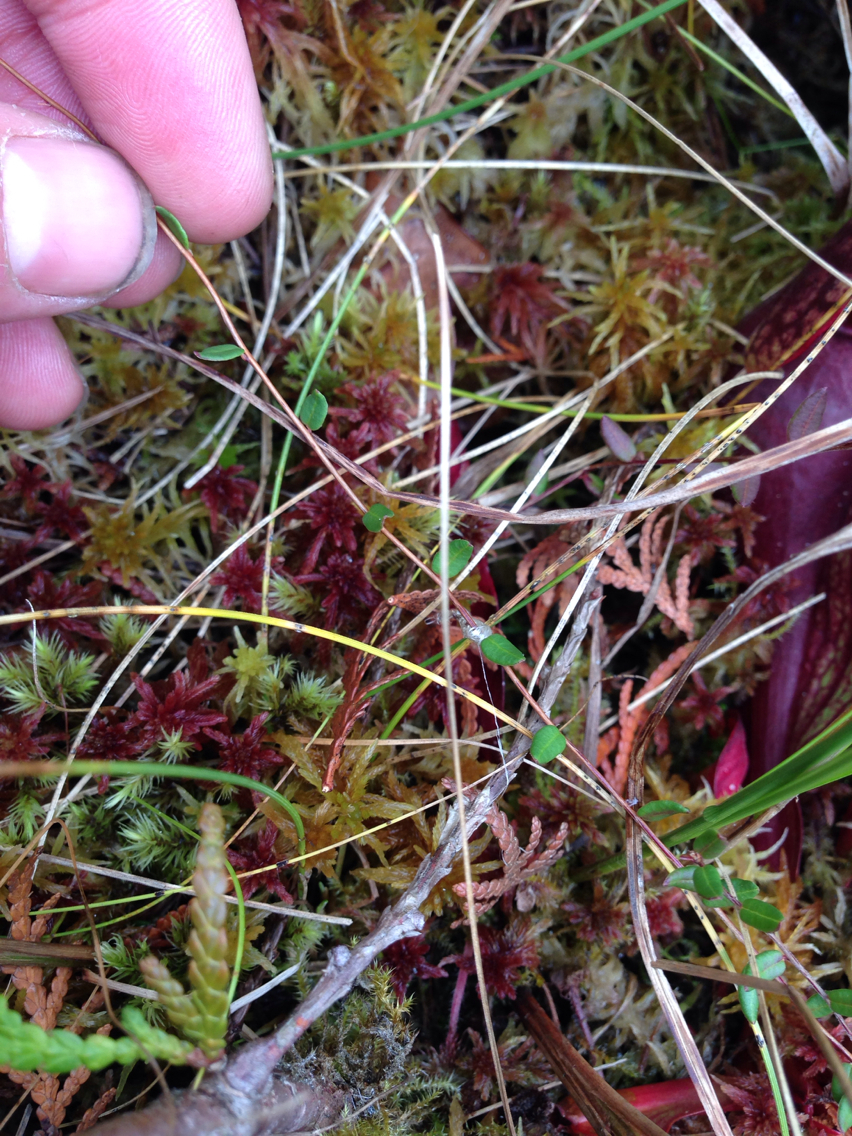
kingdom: Plantae
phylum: Tracheophyta
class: Magnoliopsida
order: Ericales
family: Ericaceae
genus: Vaccinium
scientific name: Vaccinium oxycoccos
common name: Cranberry
